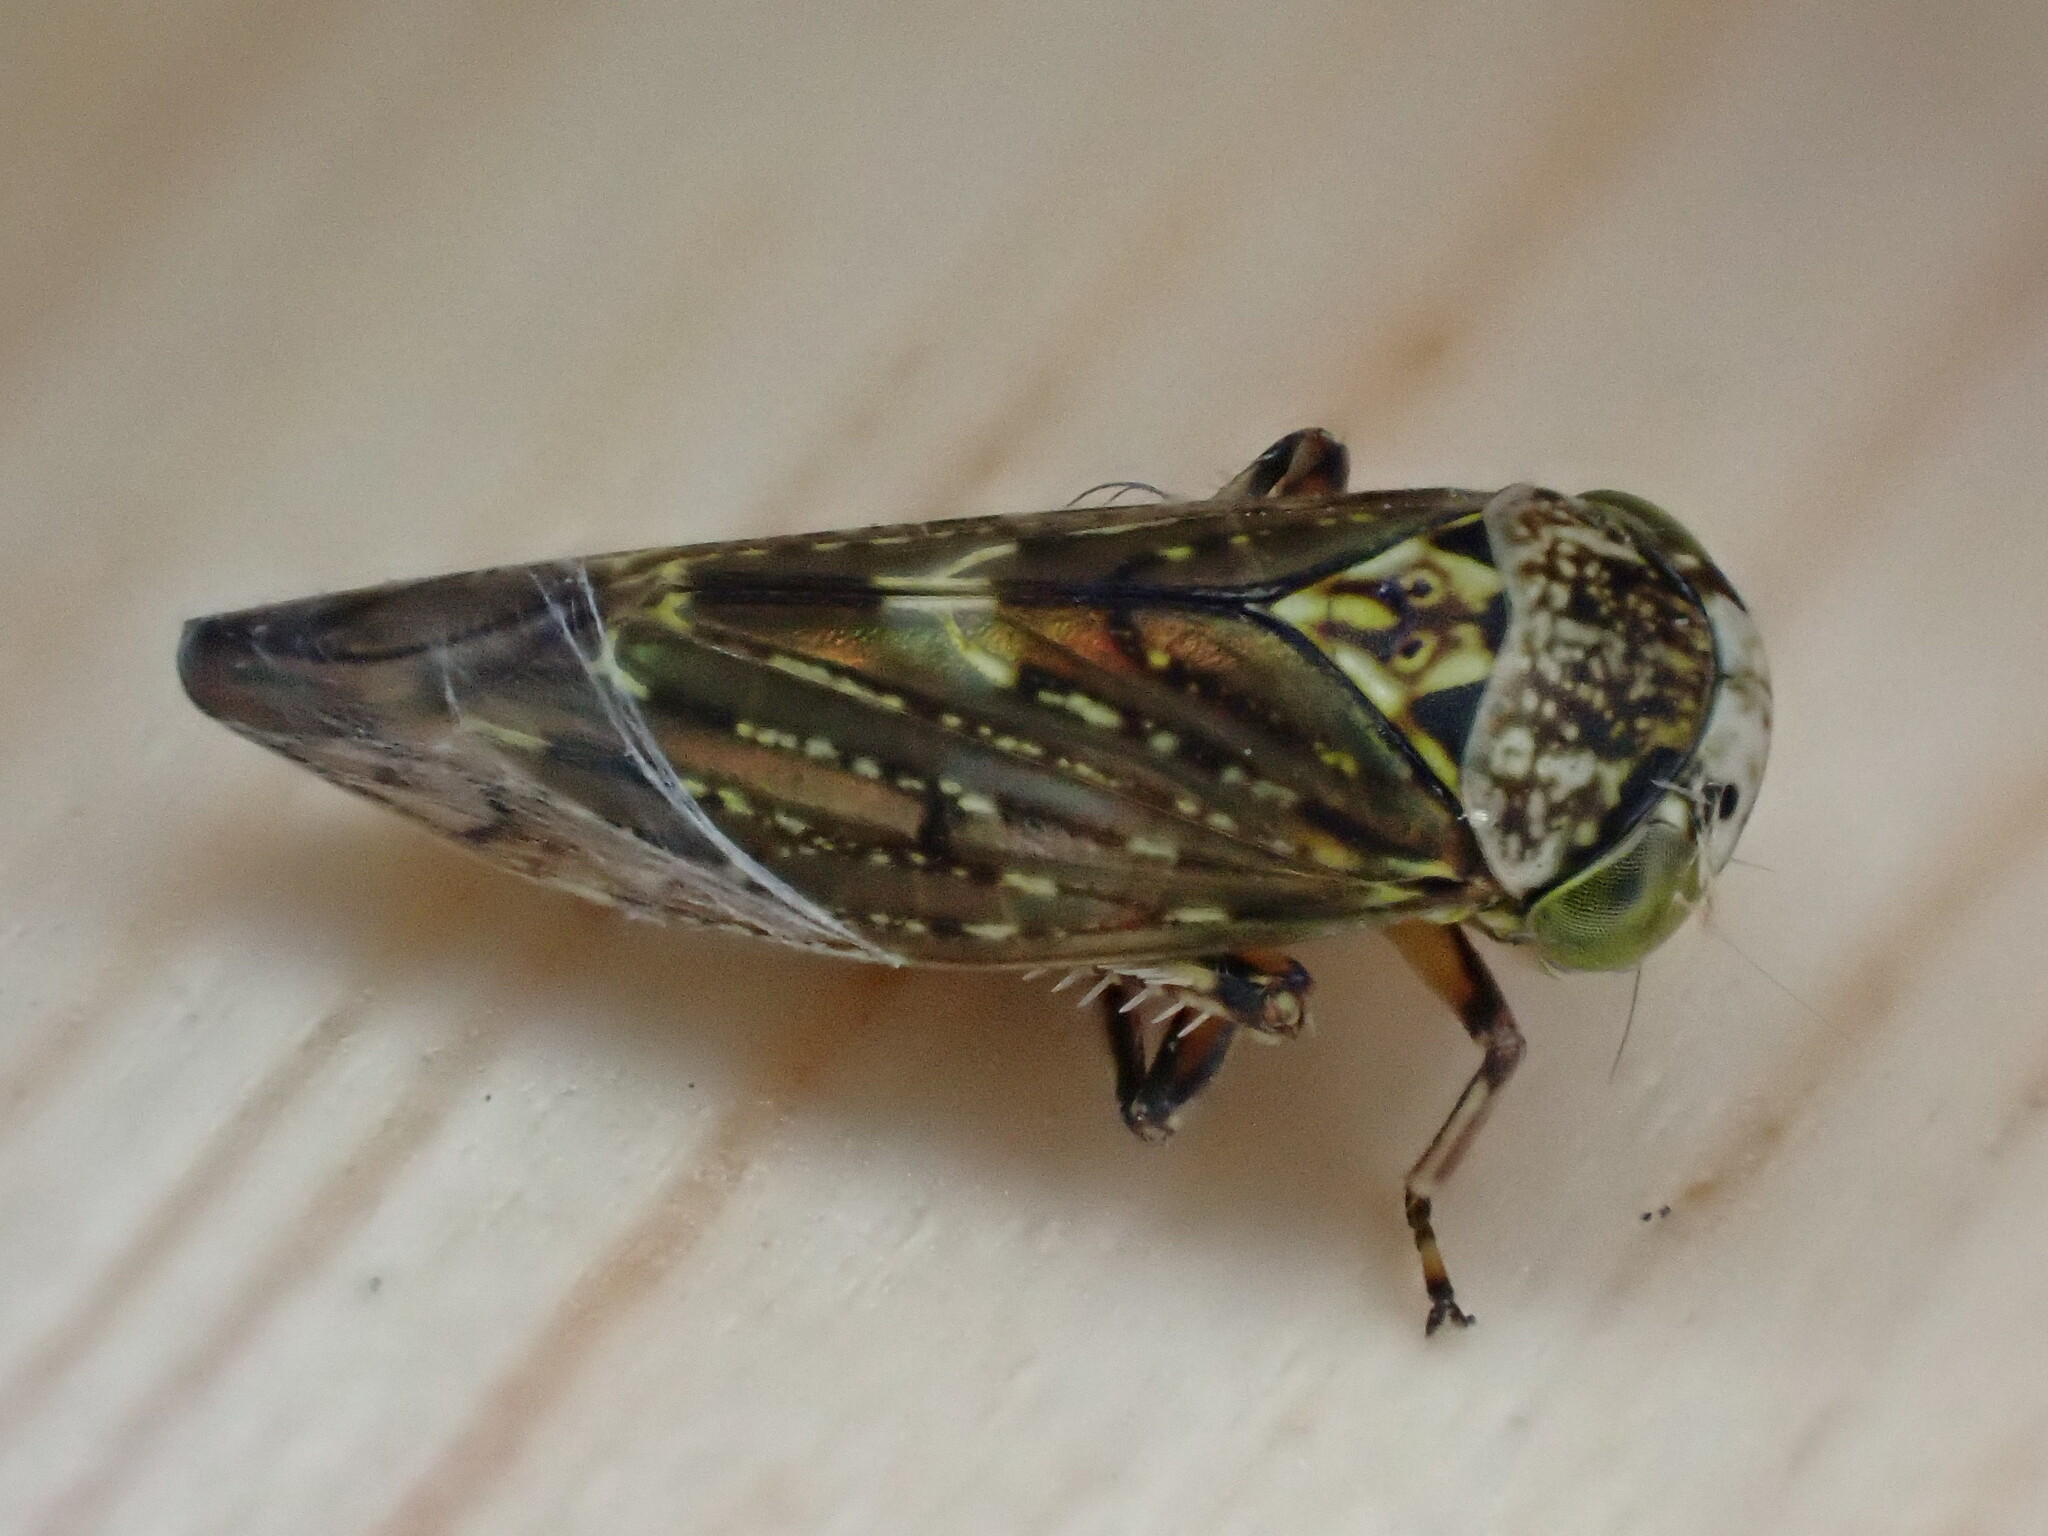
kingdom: Animalia
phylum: Arthropoda
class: Insecta
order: Hemiptera
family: Cicadellidae
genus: Acericerus
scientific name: Acericerus heydenii
